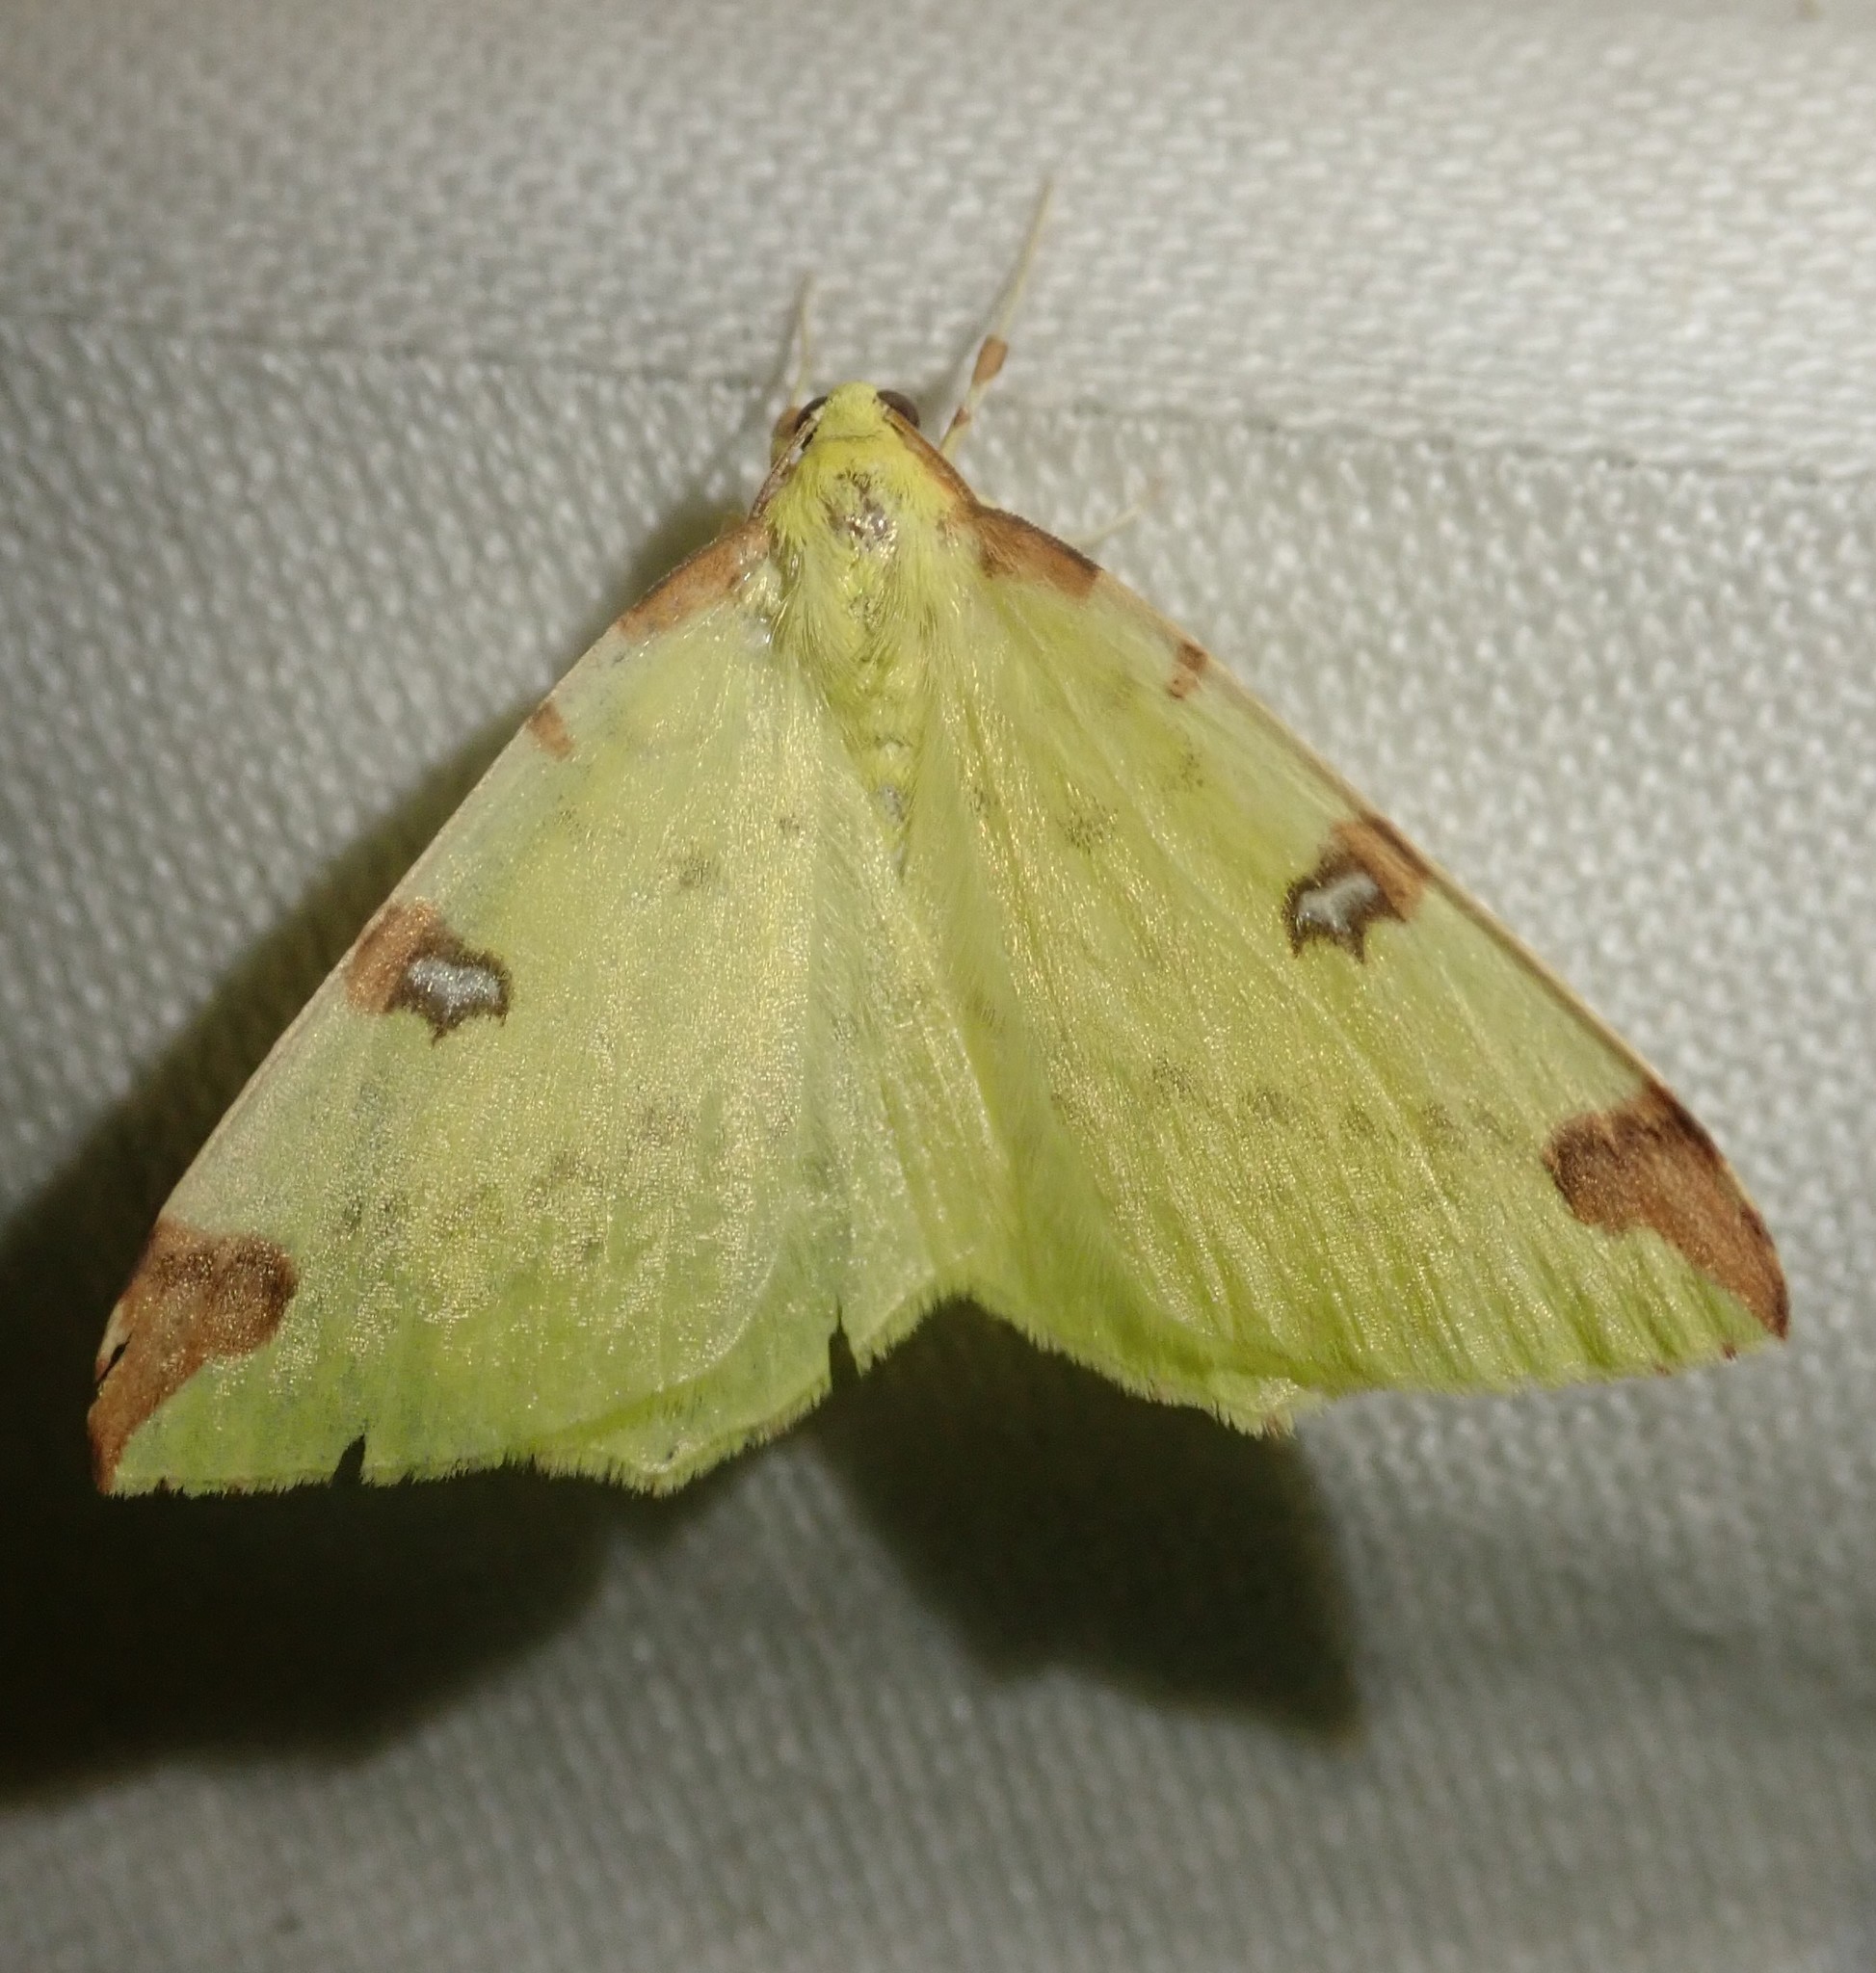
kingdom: Animalia
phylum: Arthropoda
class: Insecta
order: Lepidoptera
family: Geometridae
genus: Opisthograptis
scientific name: Opisthograptis luteolata
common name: Brimstone moth
